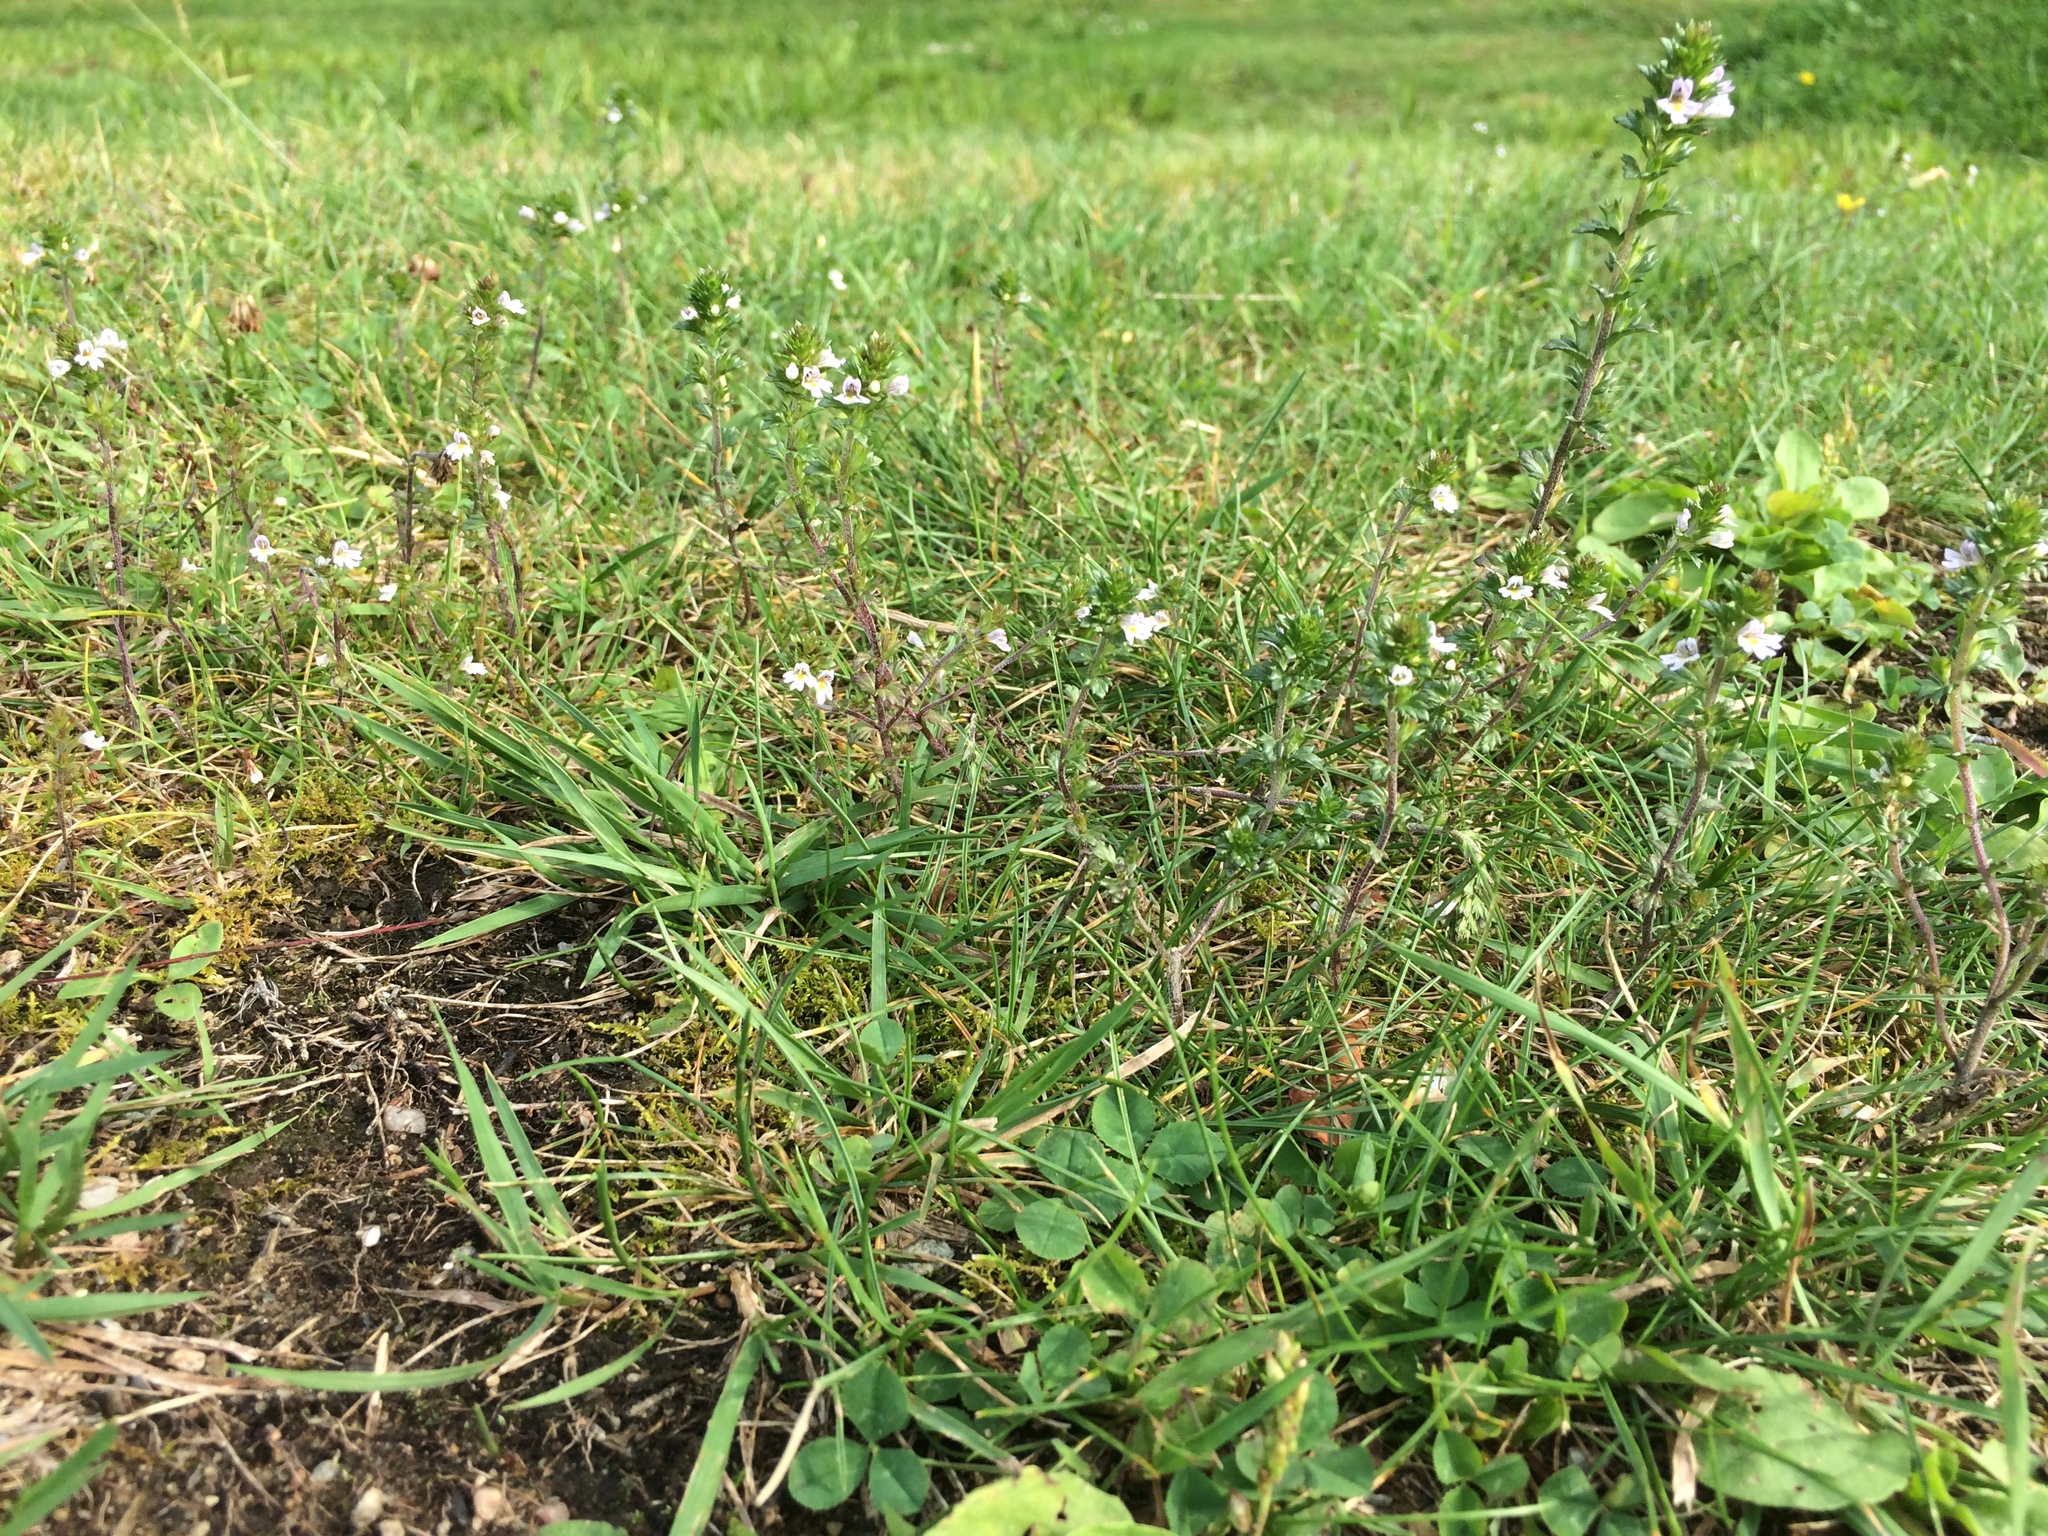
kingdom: Plantae
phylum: Tracheophyta
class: Magnoliopsida
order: Lamiales
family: Orobanchaceae
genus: Euphrasia
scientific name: Euphrasia nemorosa
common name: Common eyebright
